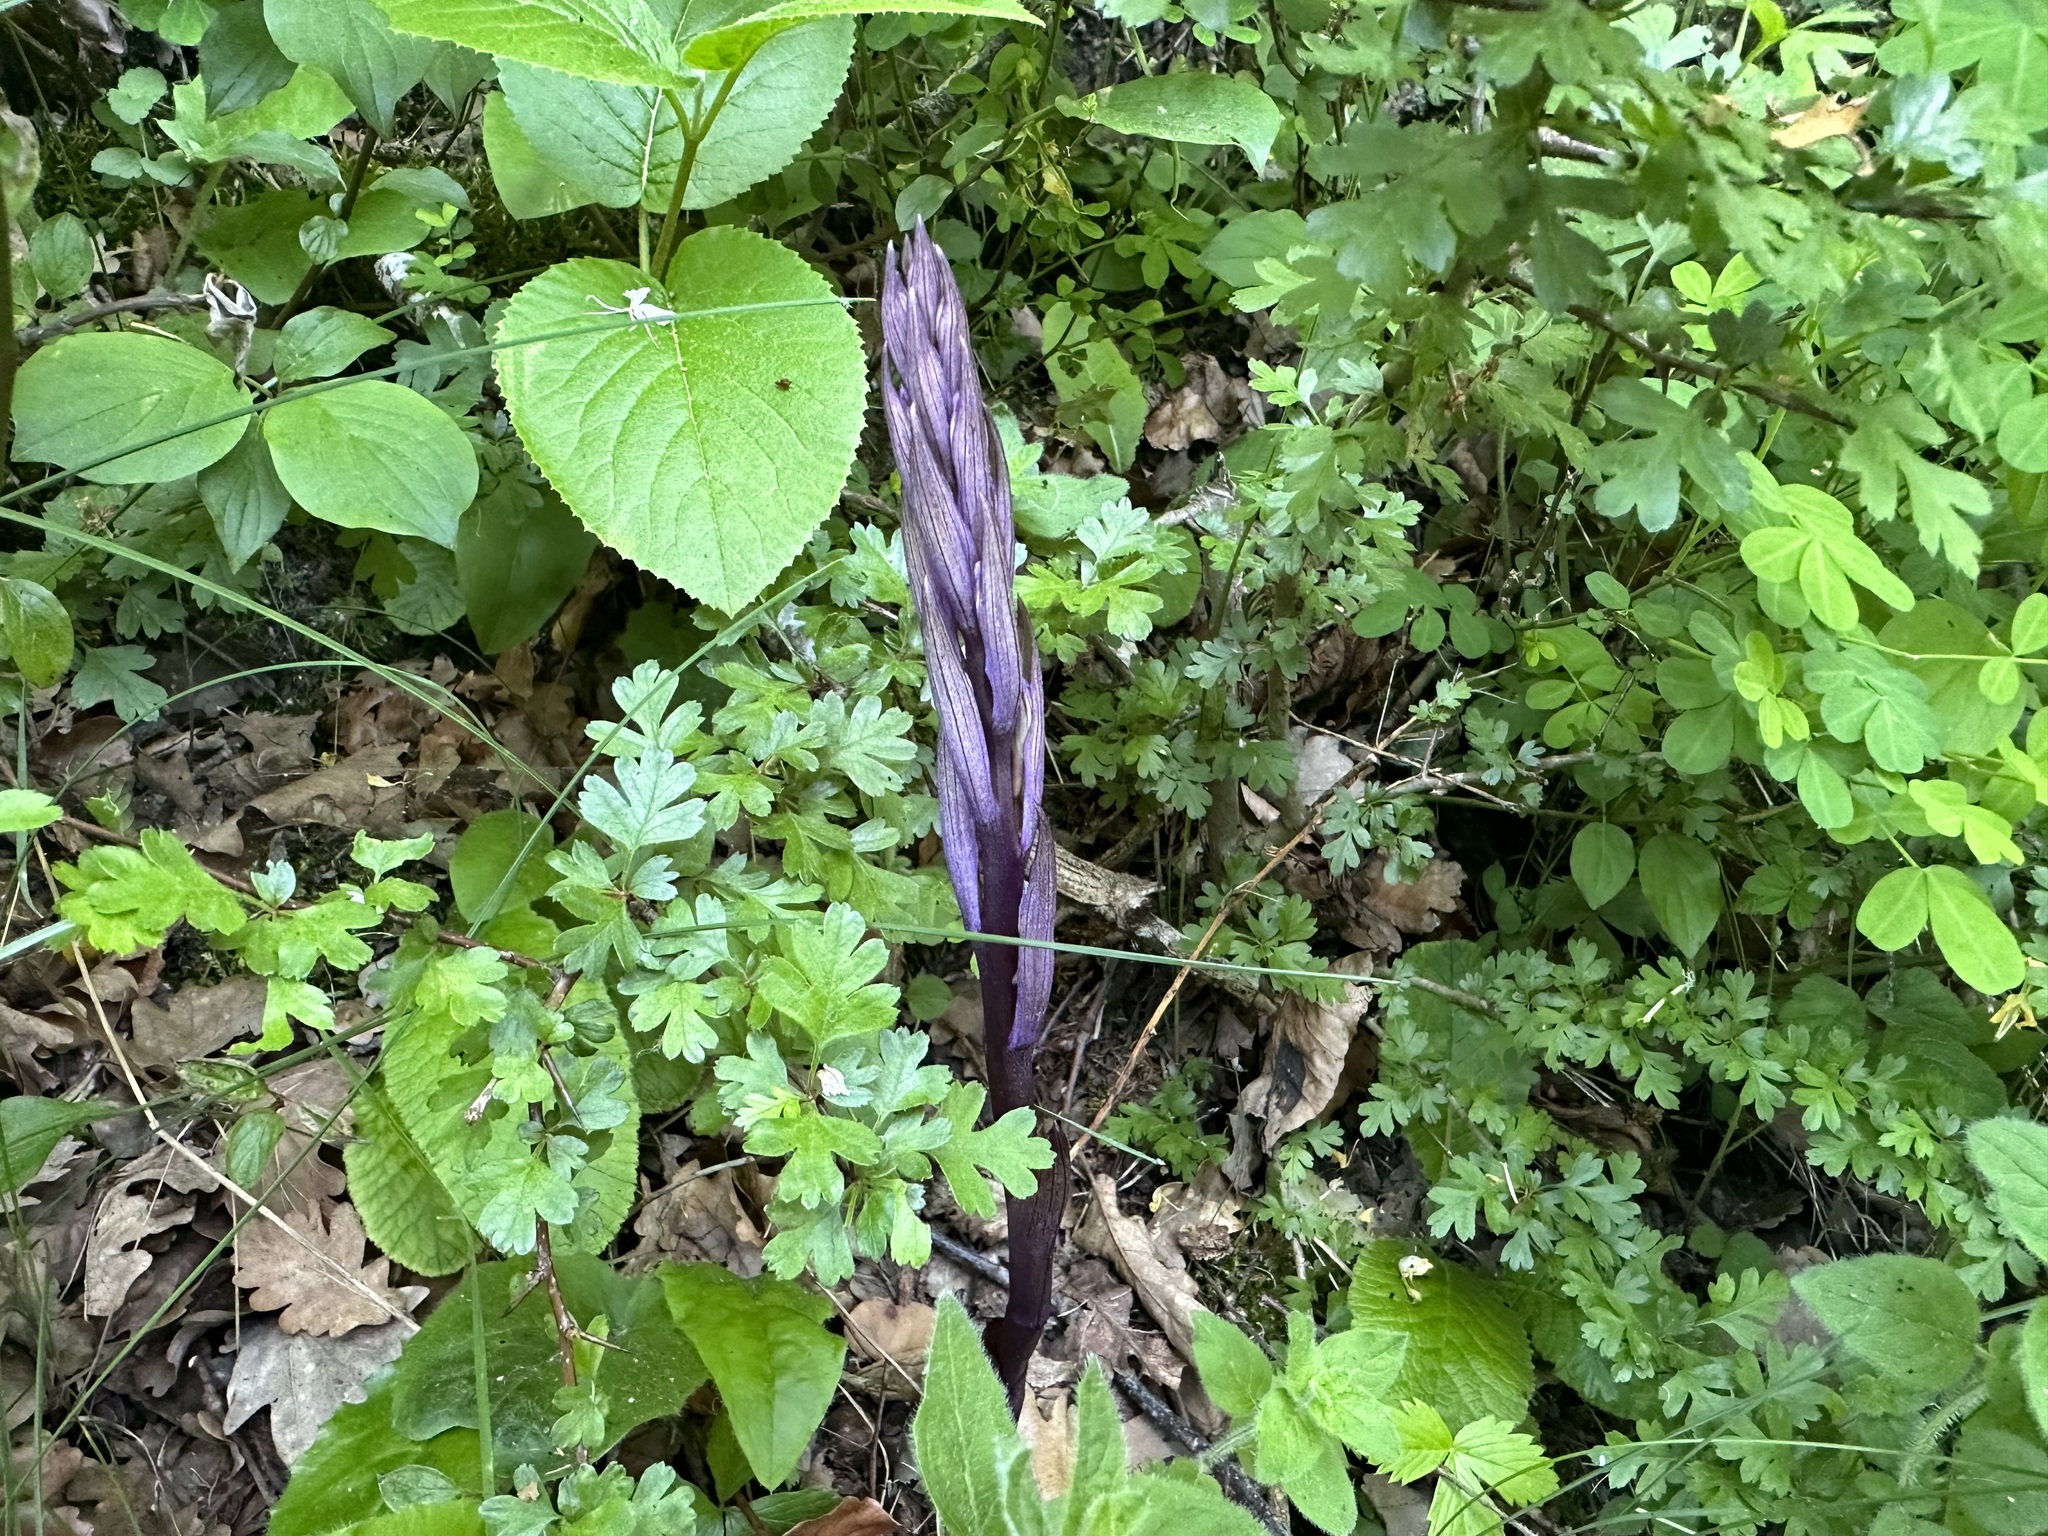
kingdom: Plantae
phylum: Tracheophyta
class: Liliopsida
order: Asparagales
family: Orchidaceae
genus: Limodorum
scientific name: Limodorum abortivum
